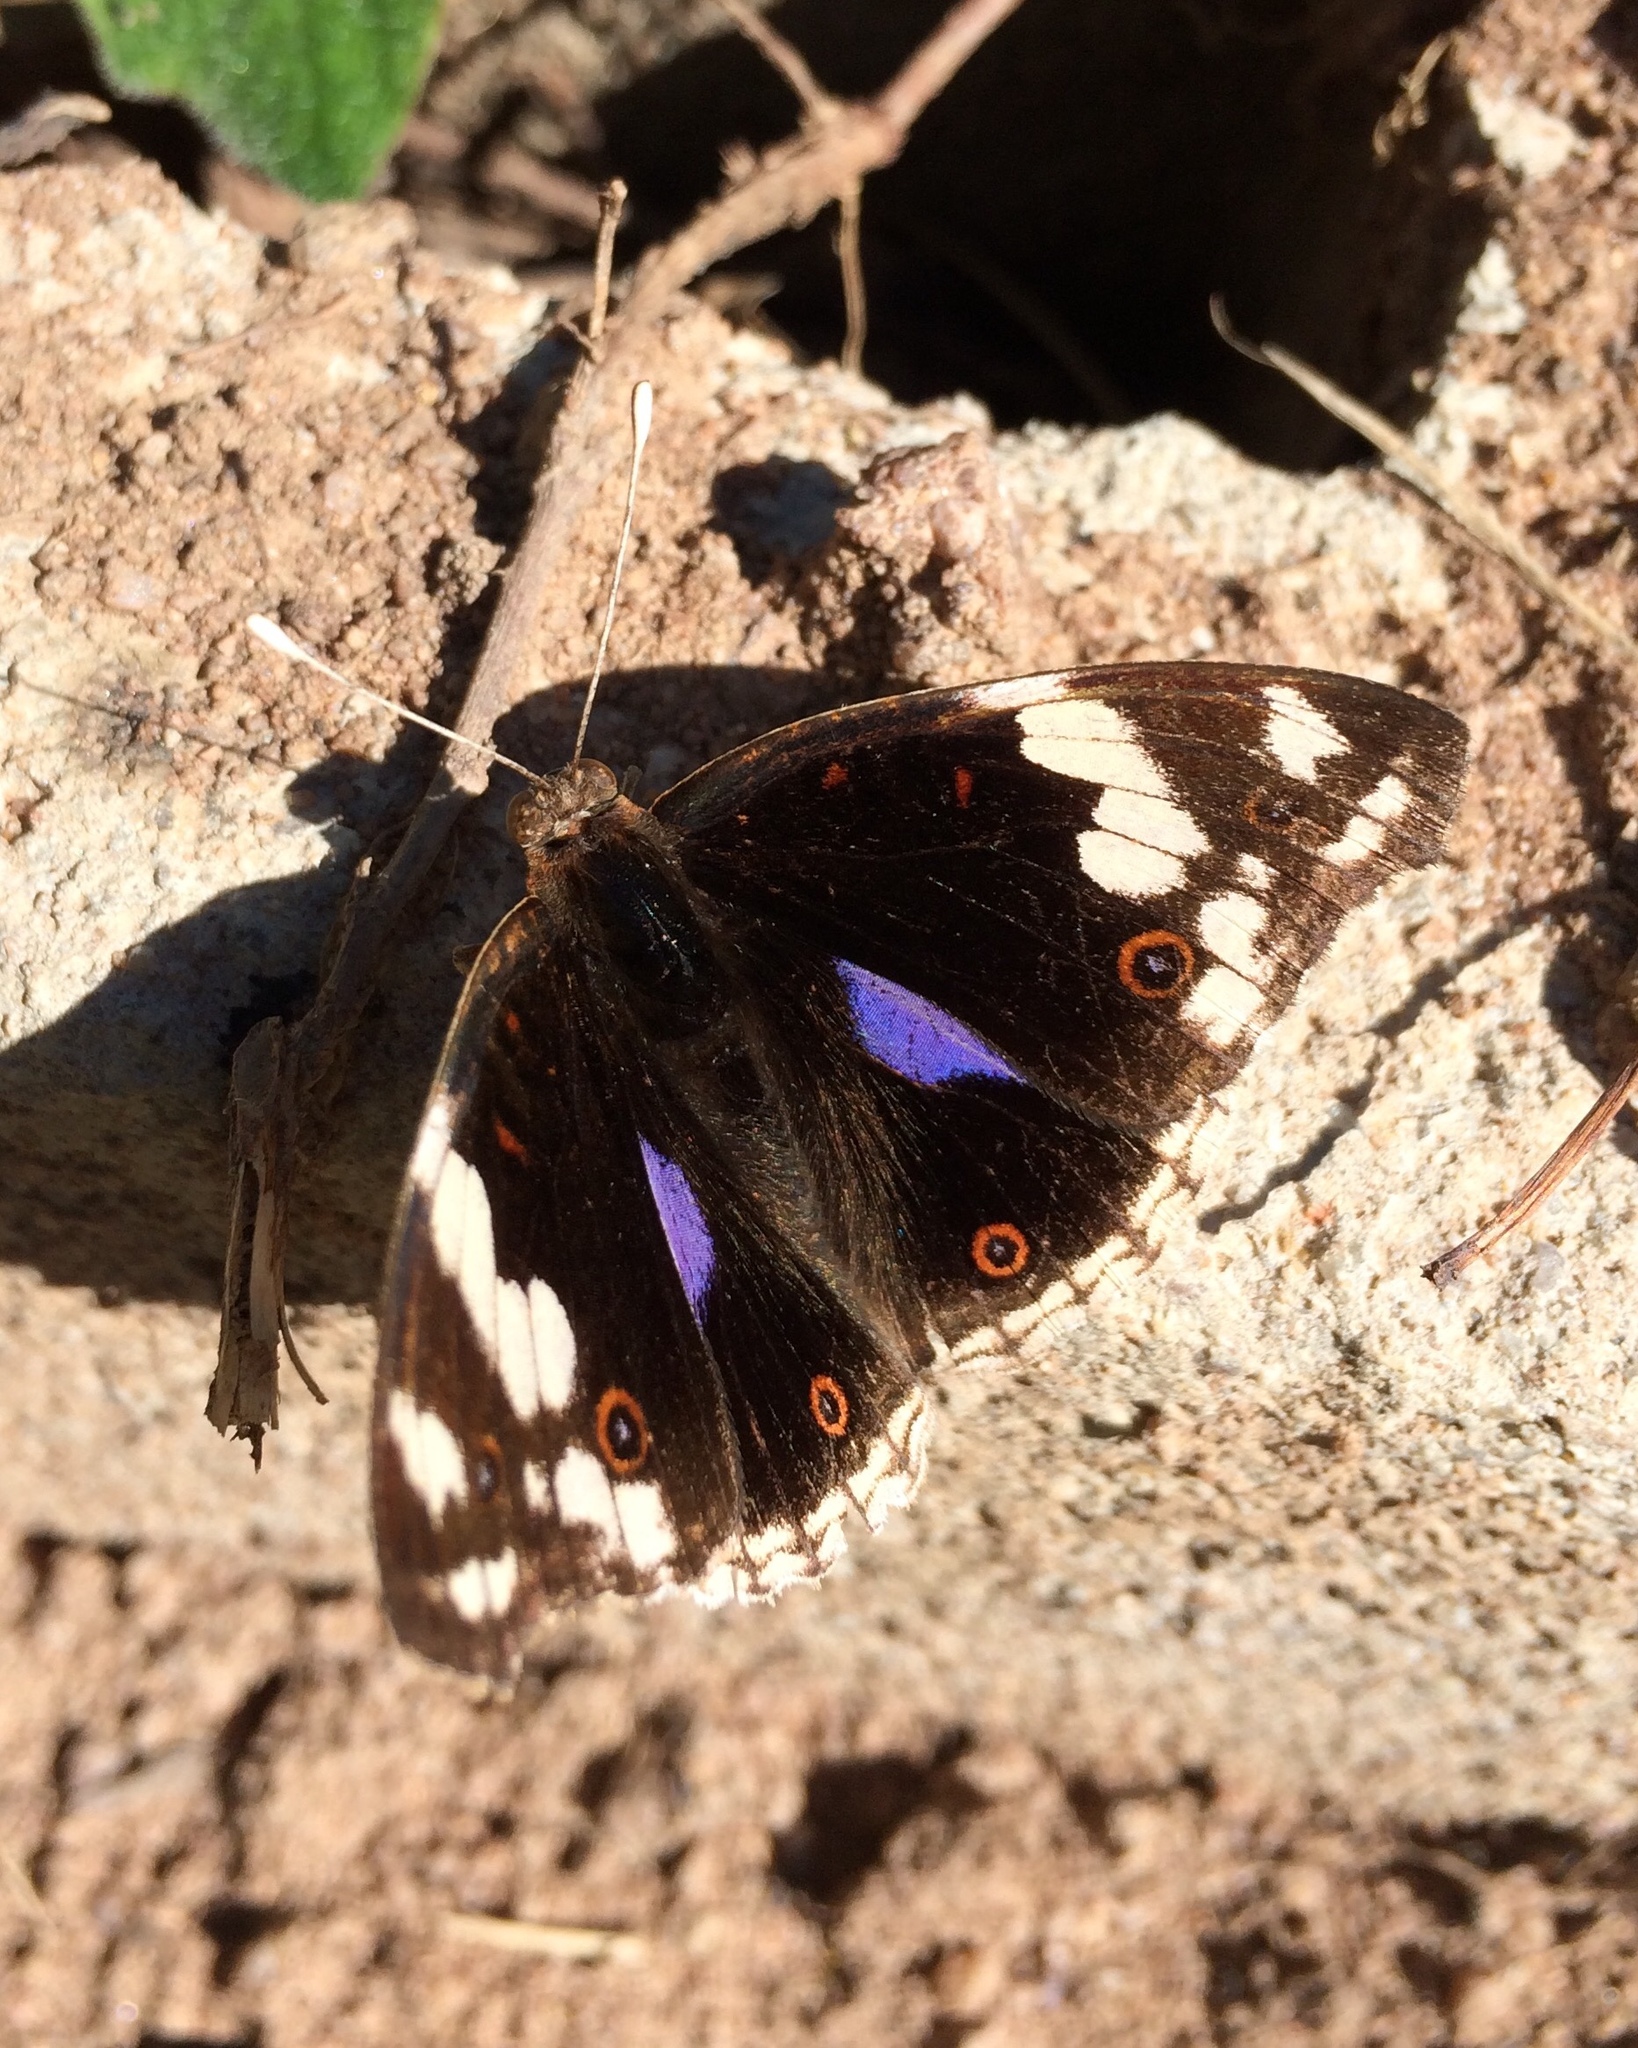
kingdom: Animalia
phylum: Arthropoda
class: Insecta
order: Lepidoptera
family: Nymphalidae
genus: Junonia
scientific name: Junonia oenone
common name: Dark blue pansy
